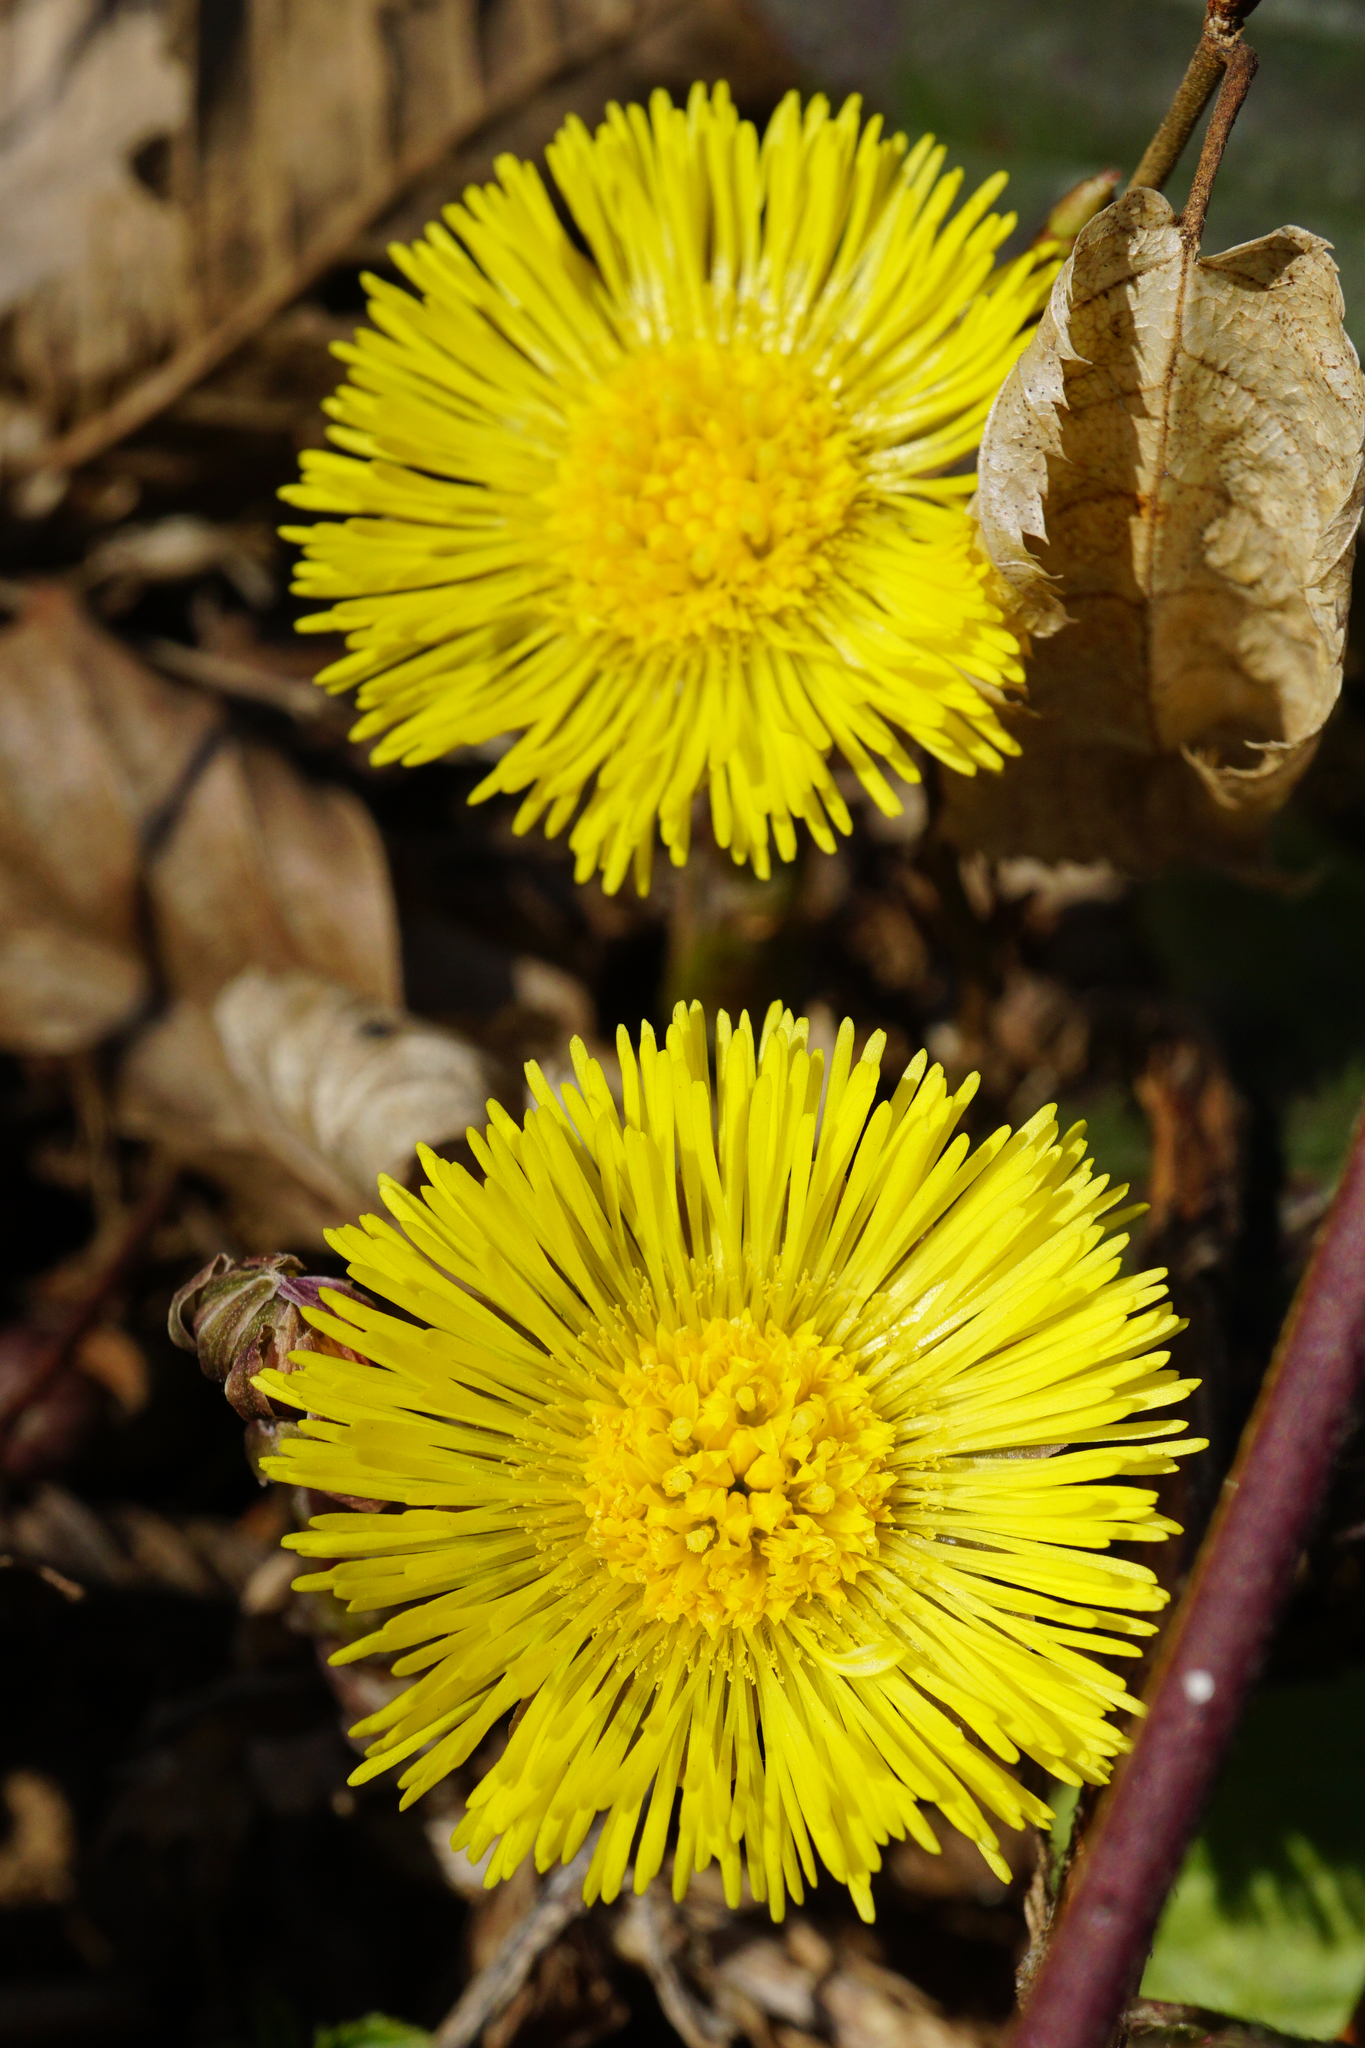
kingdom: Plantae
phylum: Tracheophyta
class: Magnoliopsida
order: Asterales
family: Asteraceae
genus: Tussilago
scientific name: Tussilago farfara
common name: Coltsfoot
